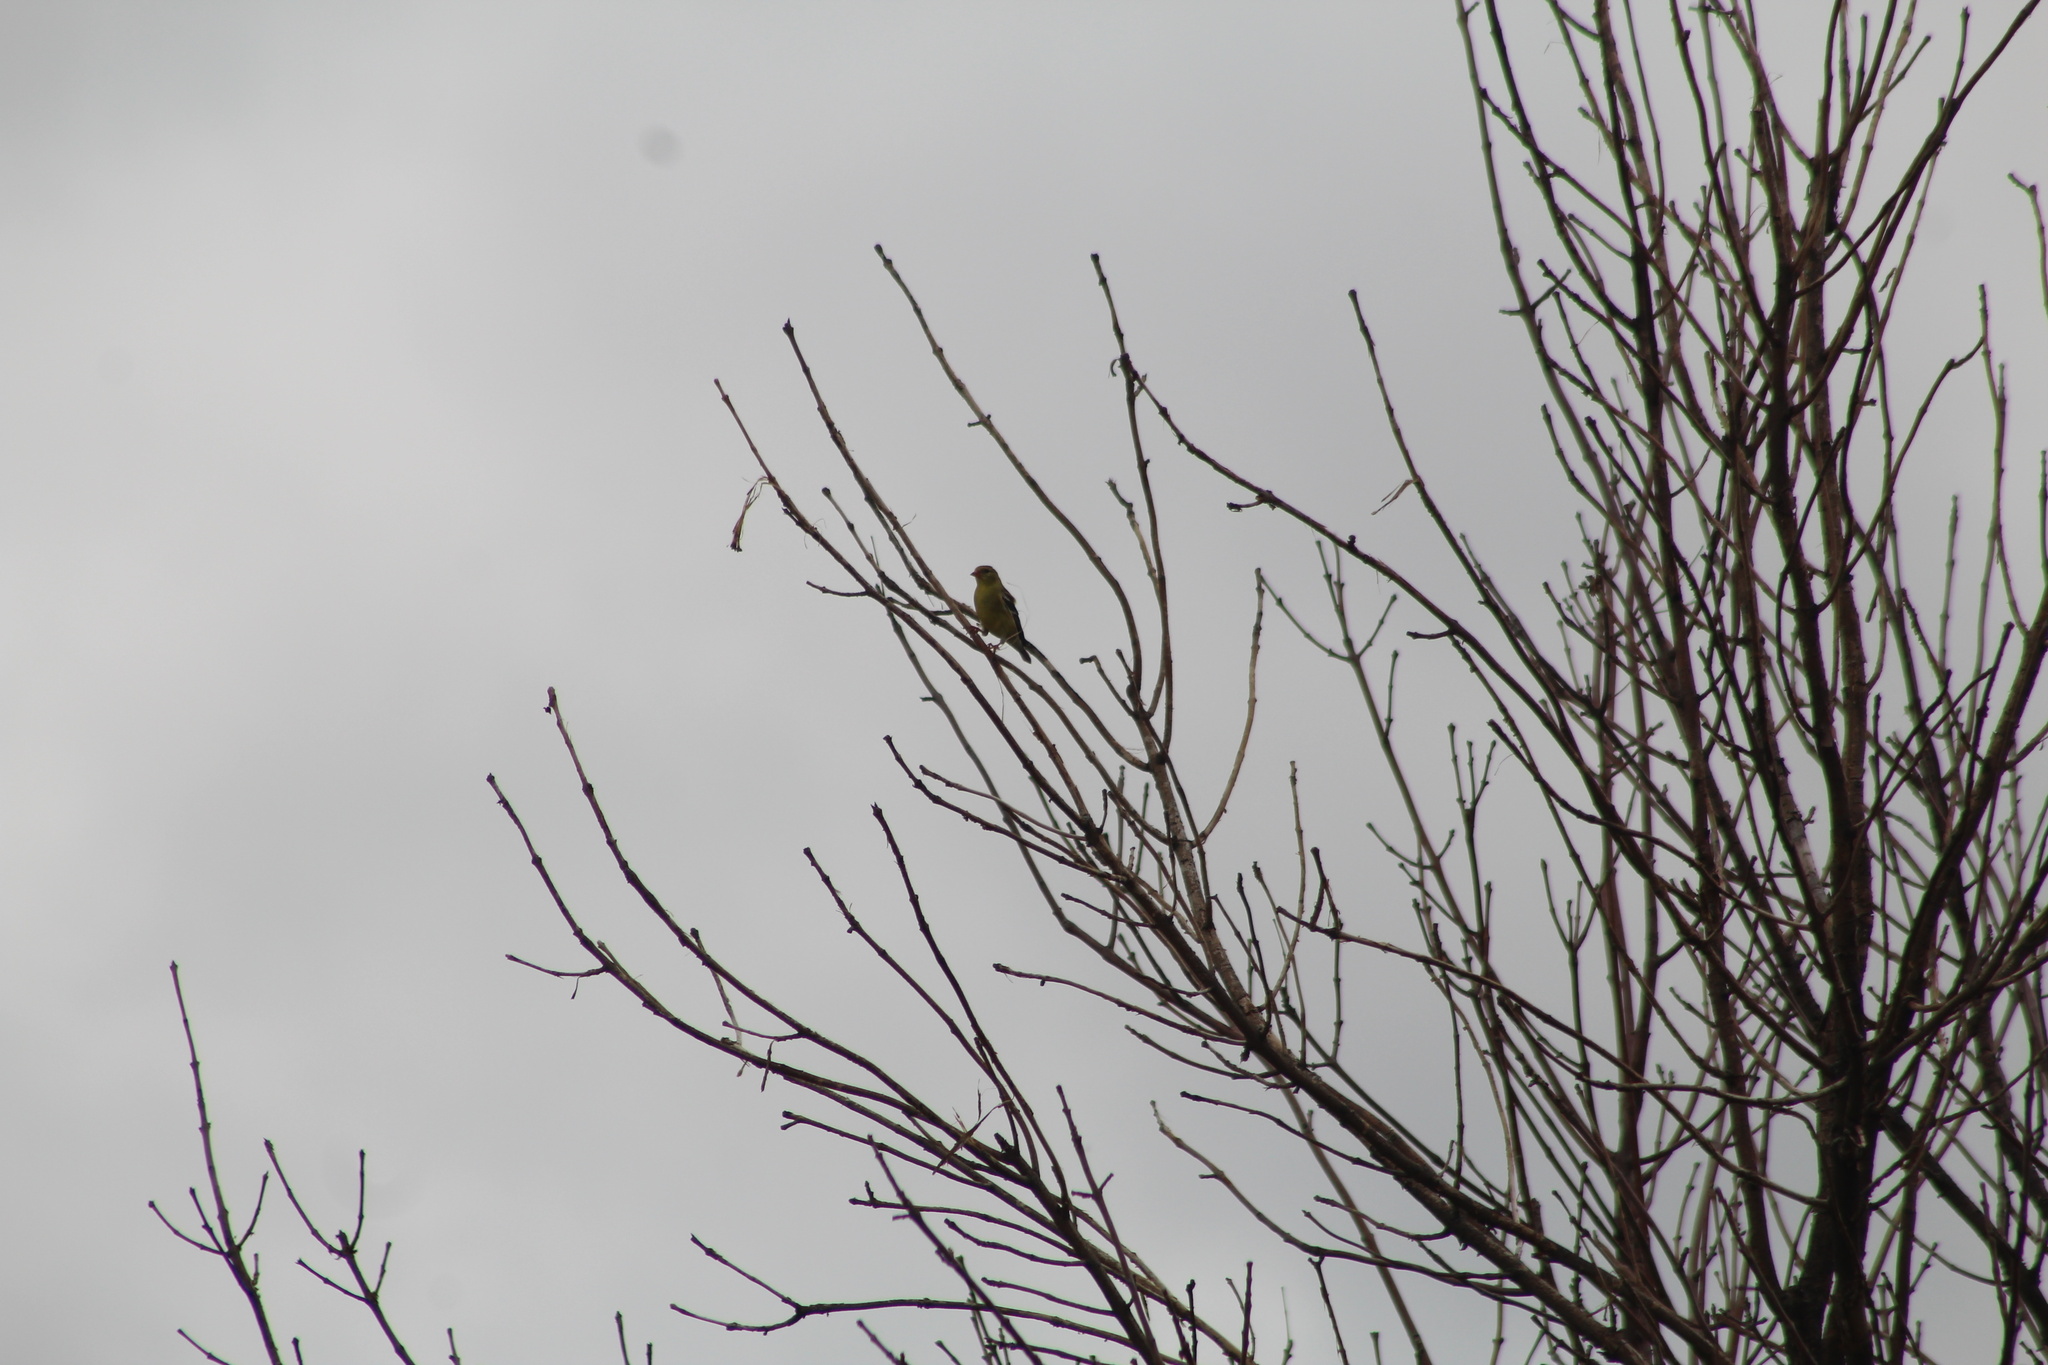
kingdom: Animalia
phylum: Chordata
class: Aves
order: Passeriformes
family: Fringillidae
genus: Spinus
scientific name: Spinus tristis
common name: American goldfinch
